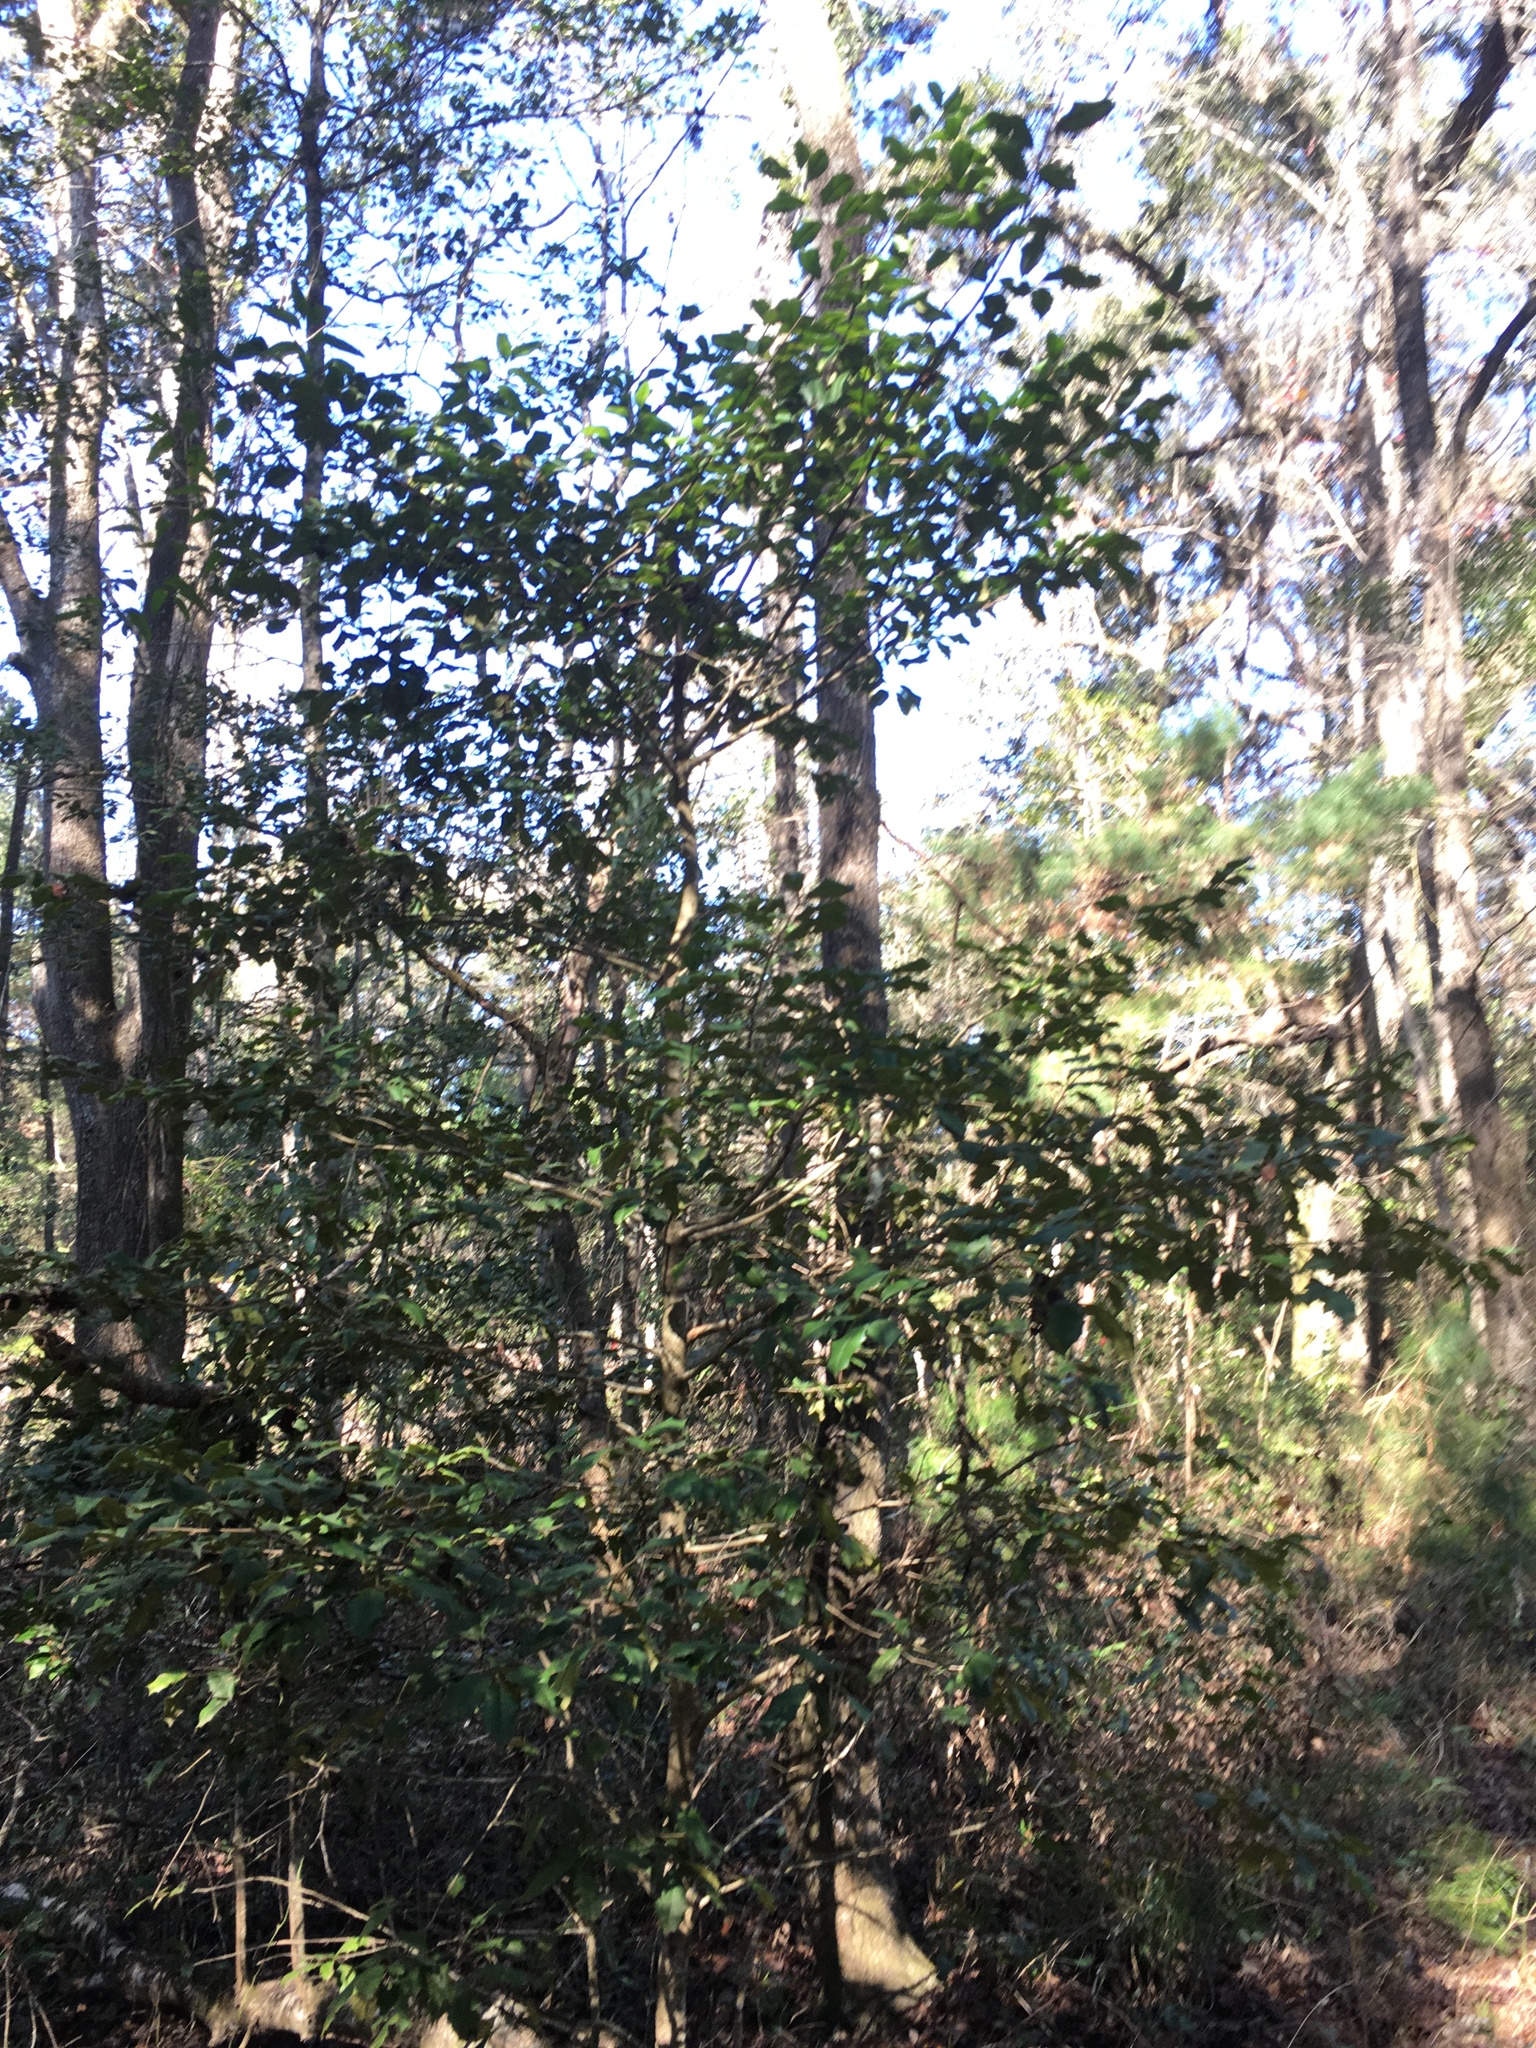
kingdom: Plantae
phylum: Tracheophyta
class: Magnoliopsida
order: Aquifoliales
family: Aquifoliaceae
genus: Ilex
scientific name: Ilex opaca
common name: American holly
